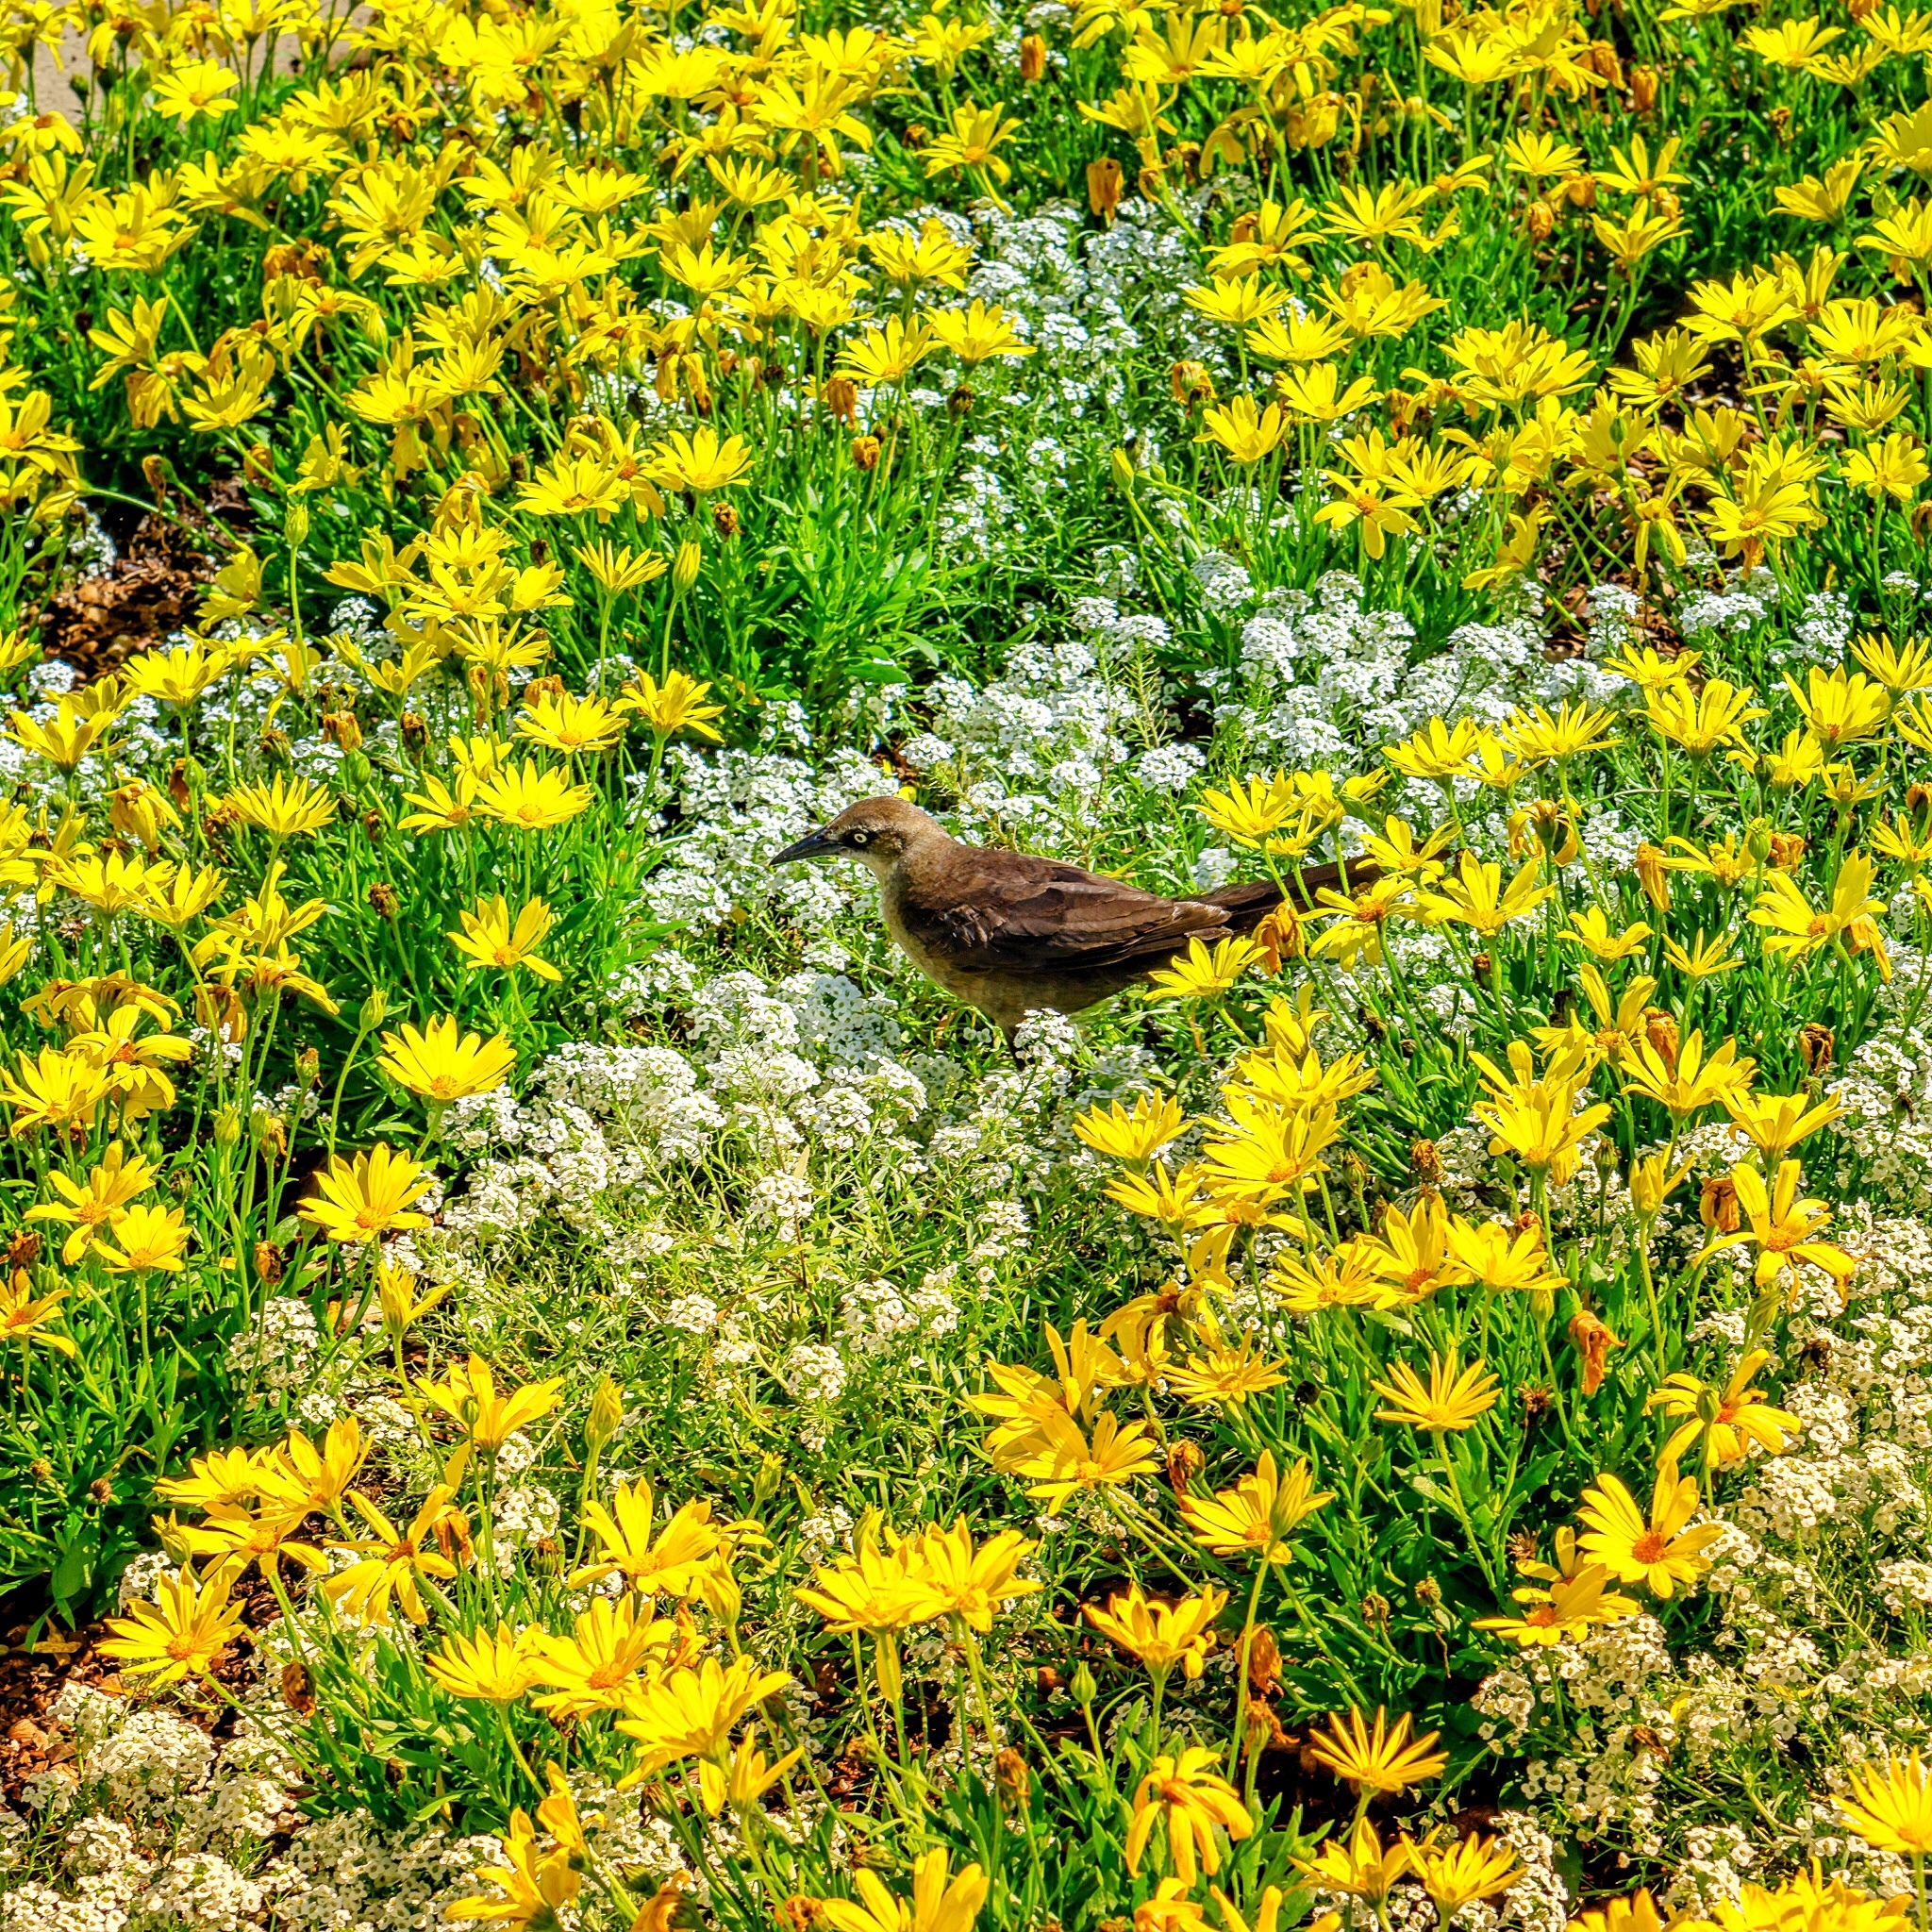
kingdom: Animalia
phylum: Chordata
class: Aves
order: Passeriformes
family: Icteridae
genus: Quiscalus
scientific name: Quiscalus mexicanus
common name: Great-tailed grackle
